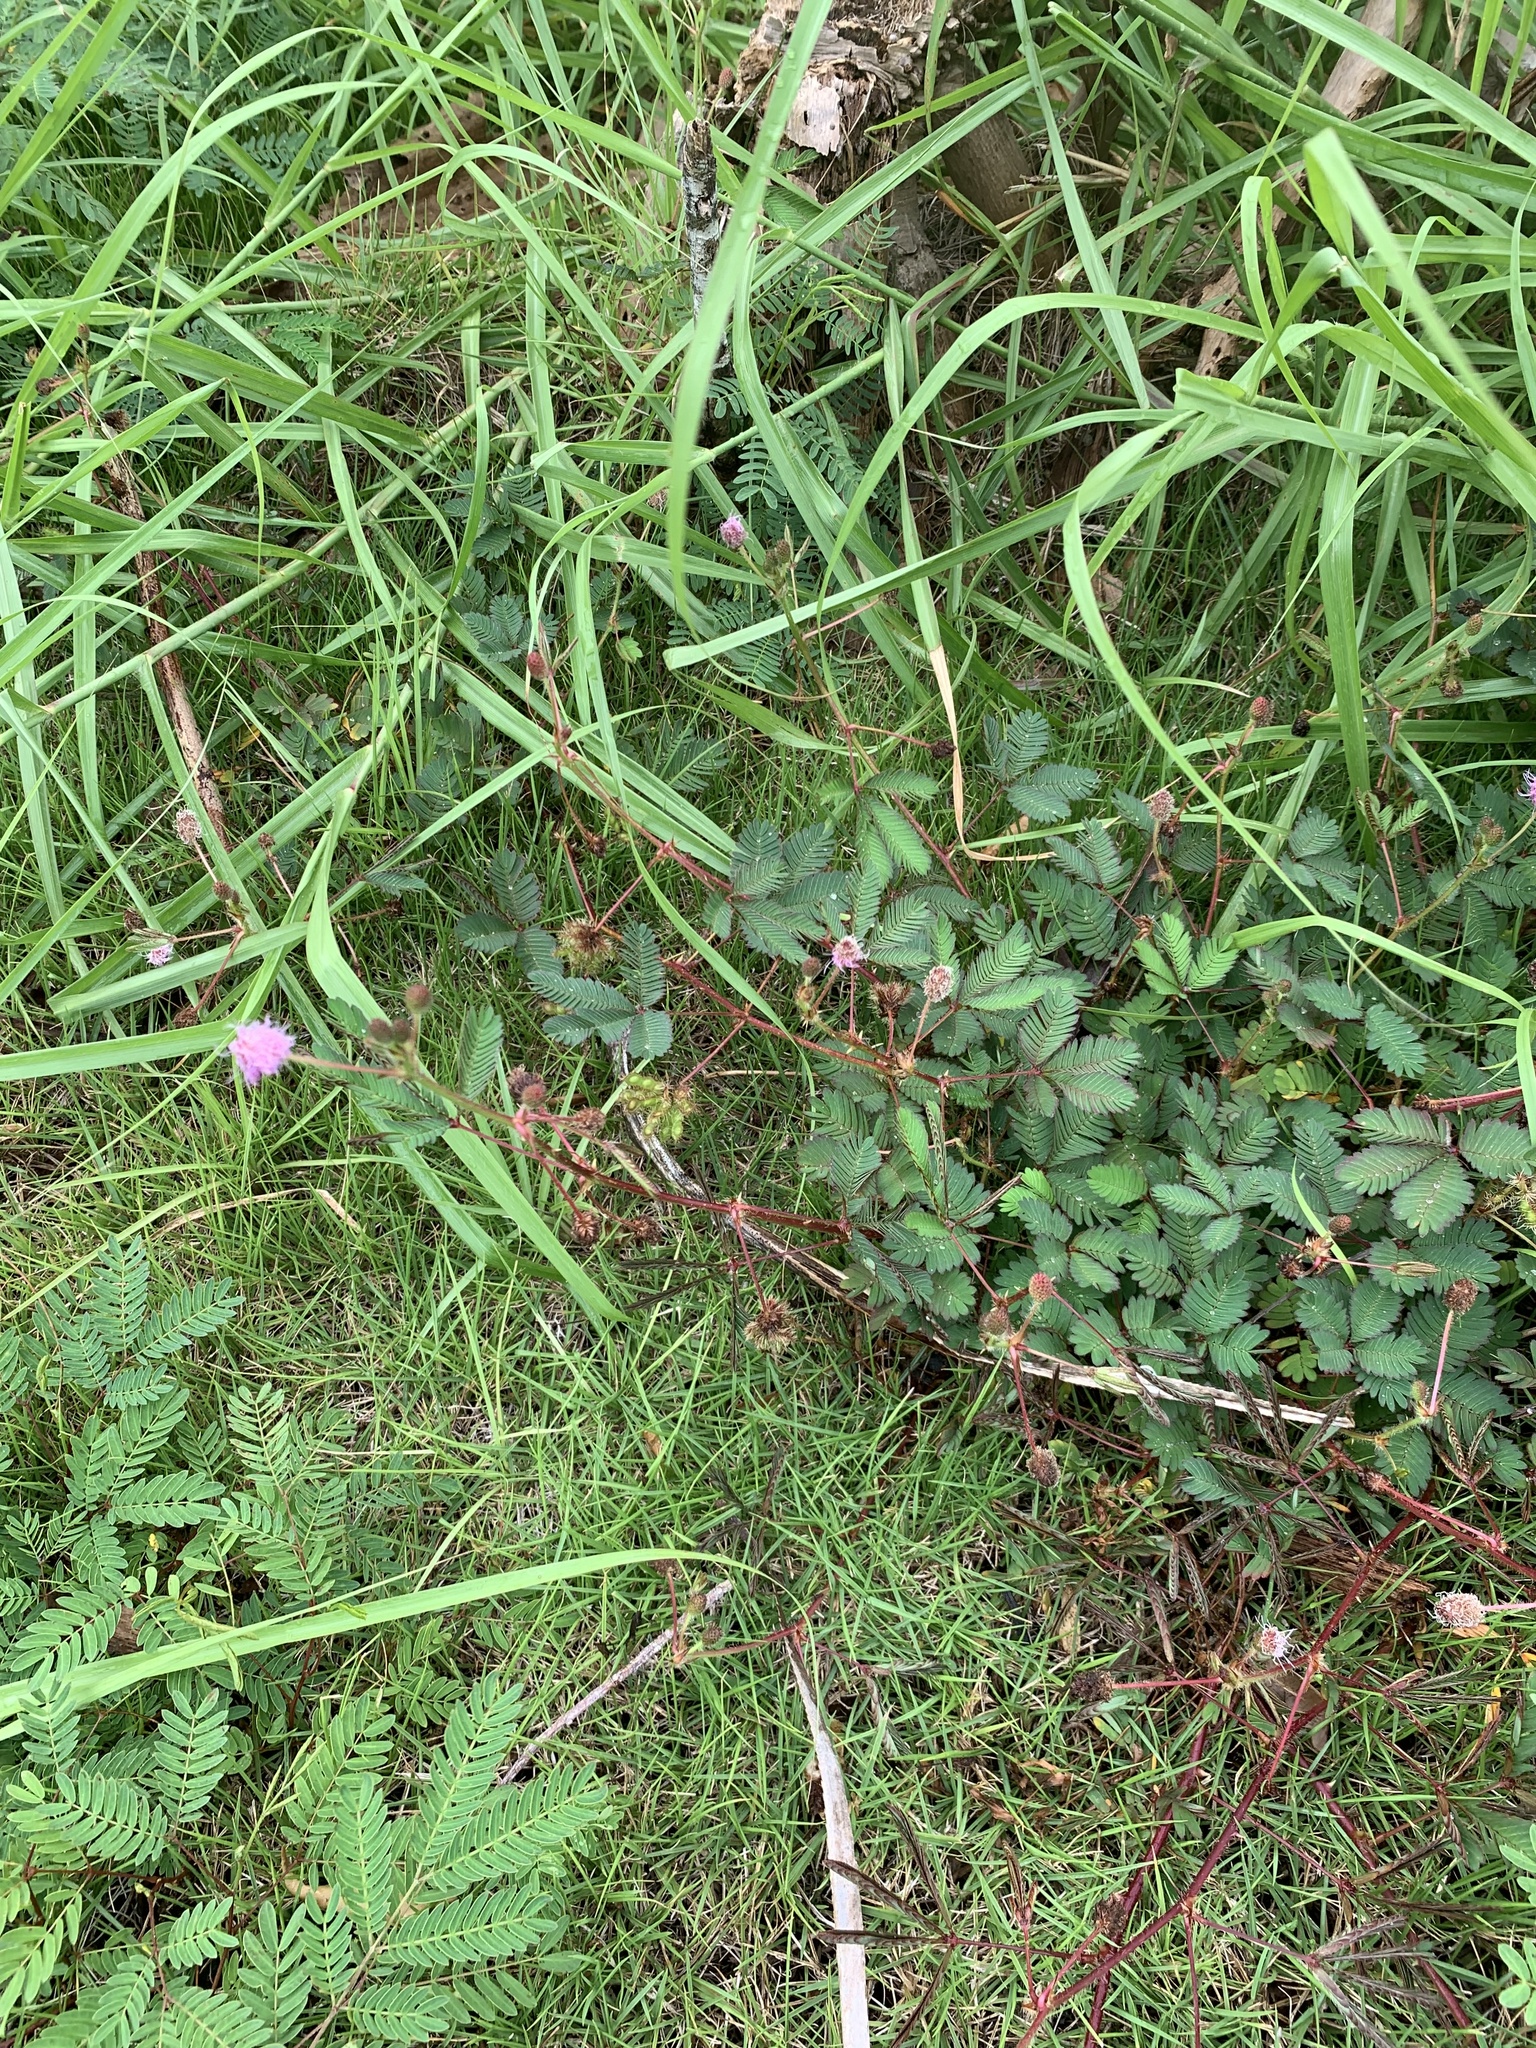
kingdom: Plantae
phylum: Tracheophyta
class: Magnoliopsida
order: Fabales
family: Fabaceae
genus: Mimosa
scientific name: Mimosa pudica
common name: Sensitive plant
